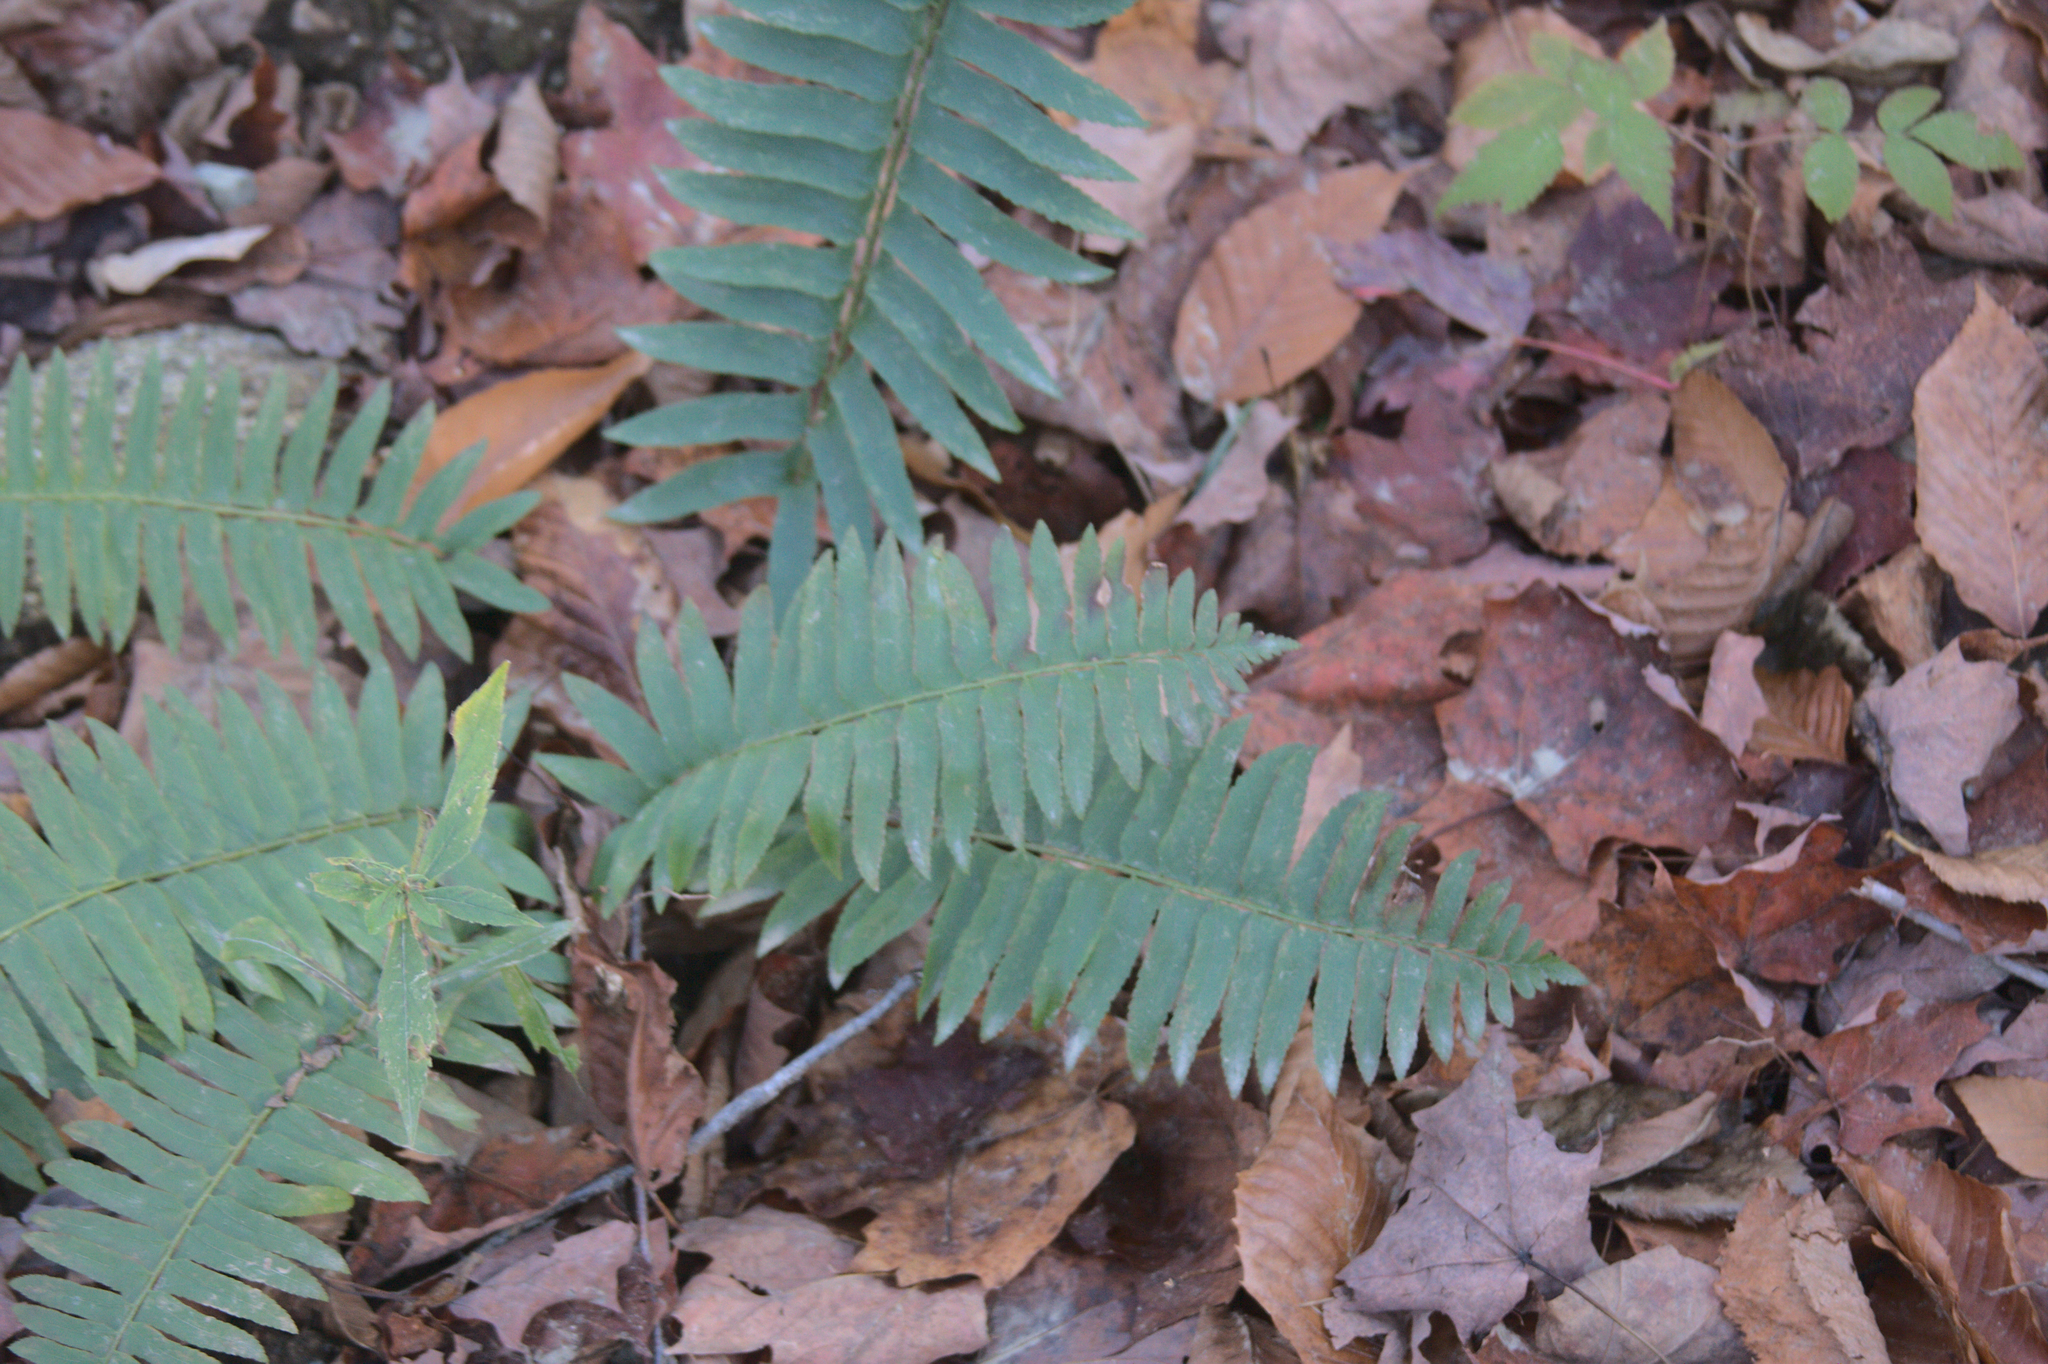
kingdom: Plantae
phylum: Tracheophyta
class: Polypodiopsida
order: Polypodiales
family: Dryopteridaceae
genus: Polystichum
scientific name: Polystichum acrostichoides
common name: Christmas fern
